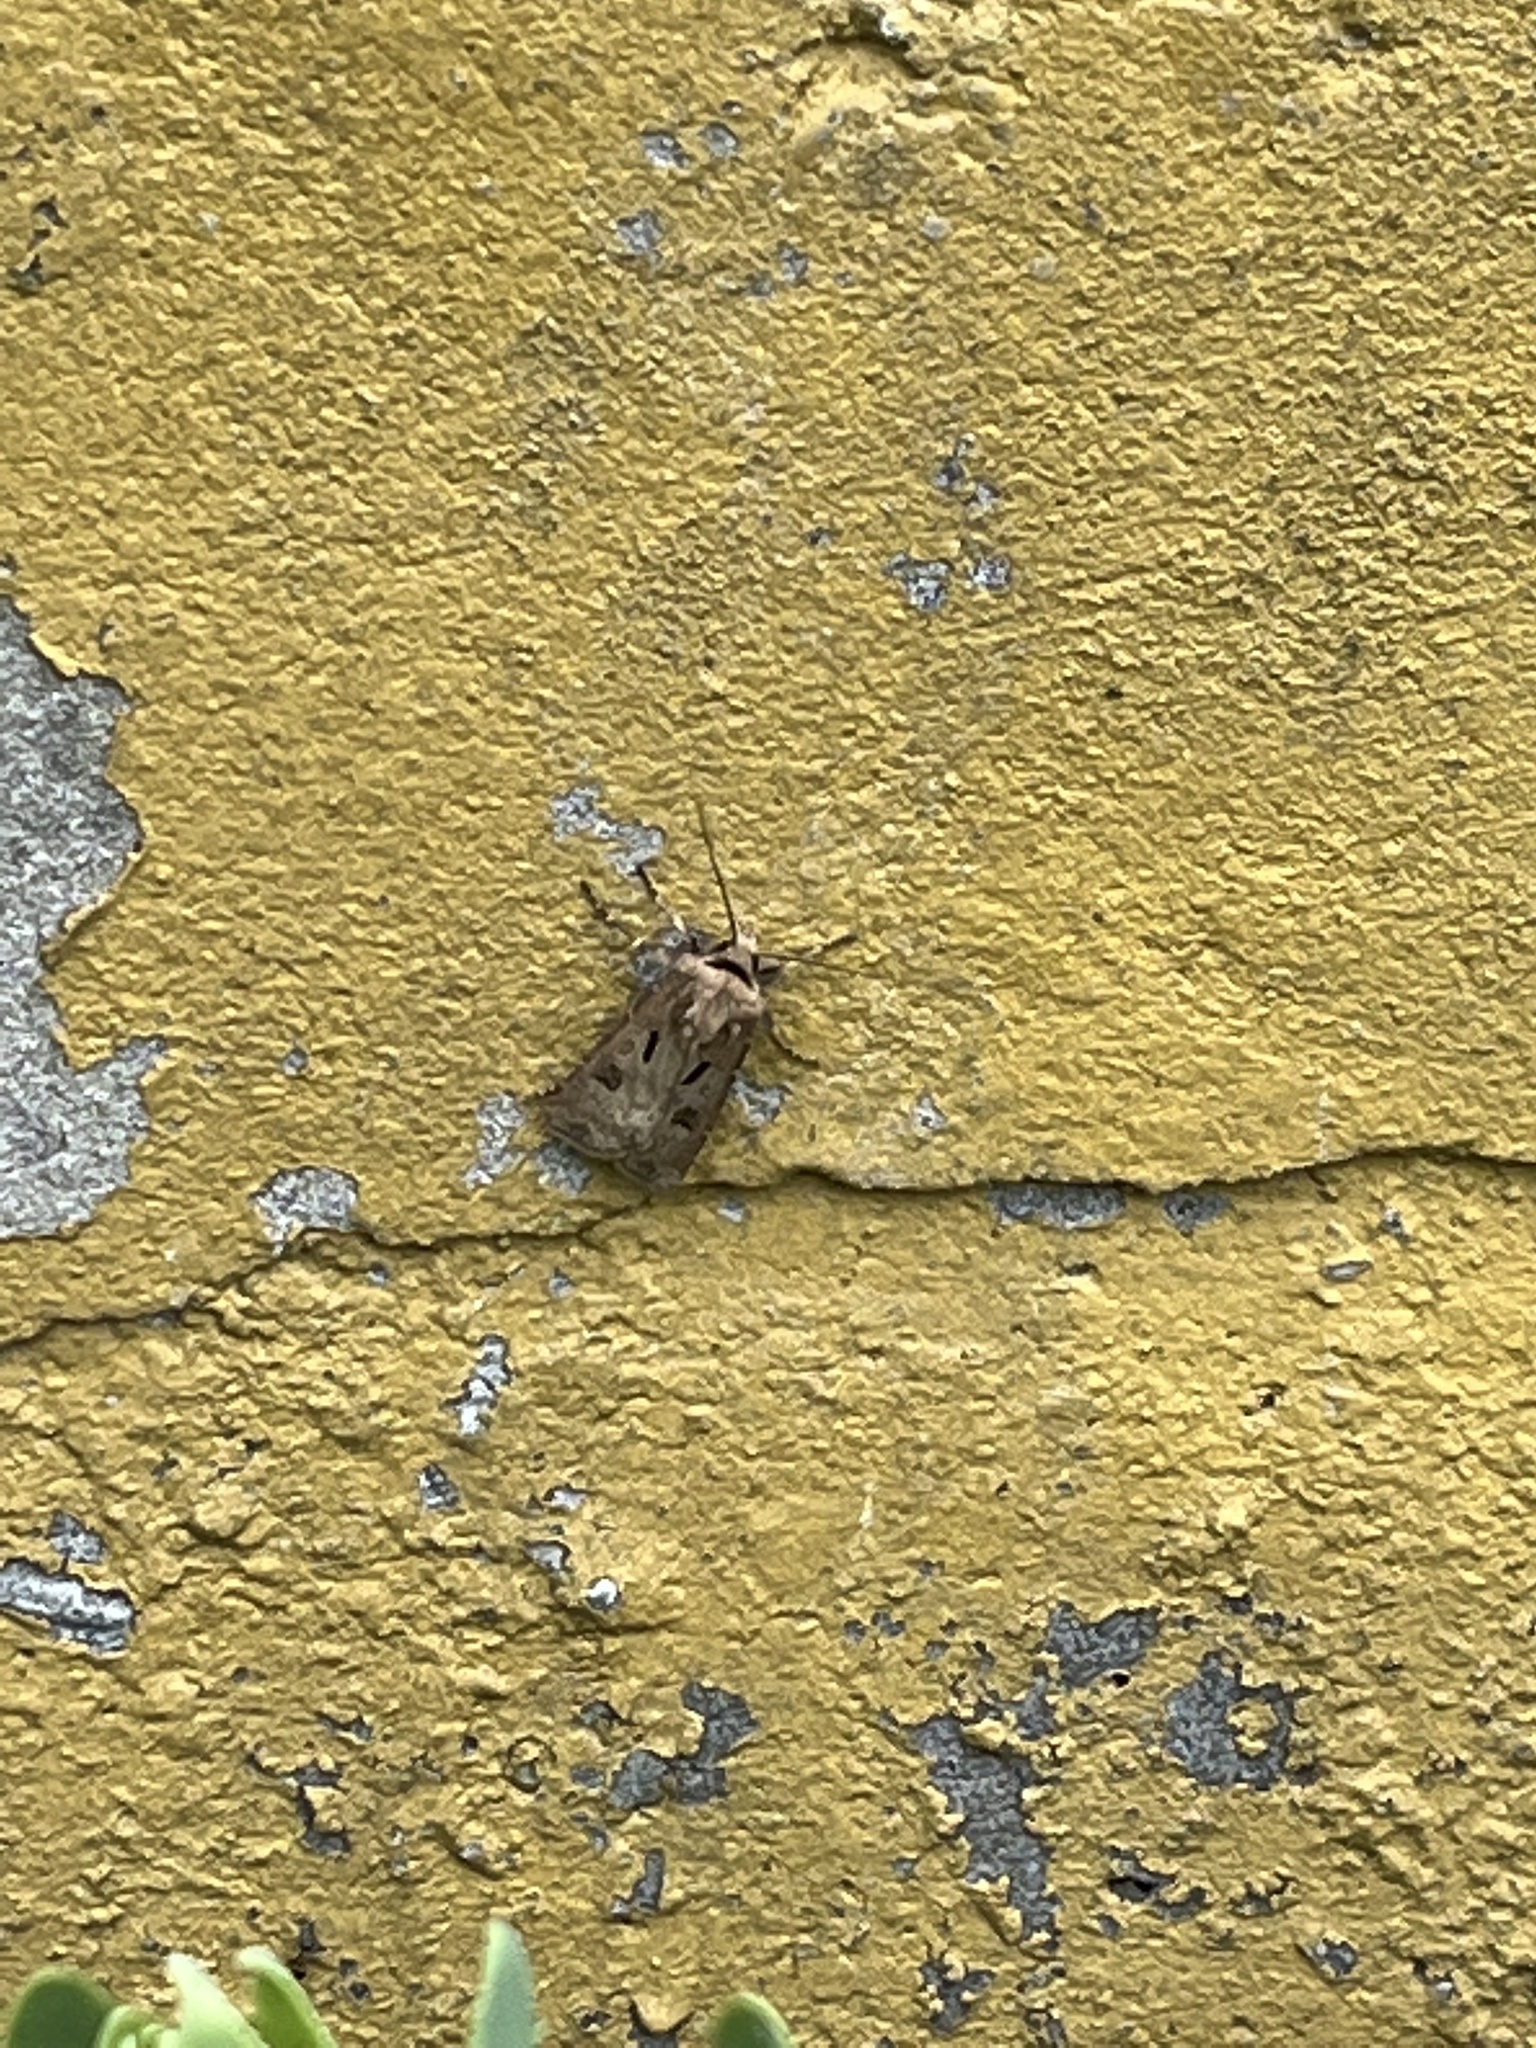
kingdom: Animalia
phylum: Arthropoda
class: Insecta
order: Lepidoptera
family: Noctuidae
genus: Agrotis
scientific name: Agrotis exclamationis
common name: Heart and dart
